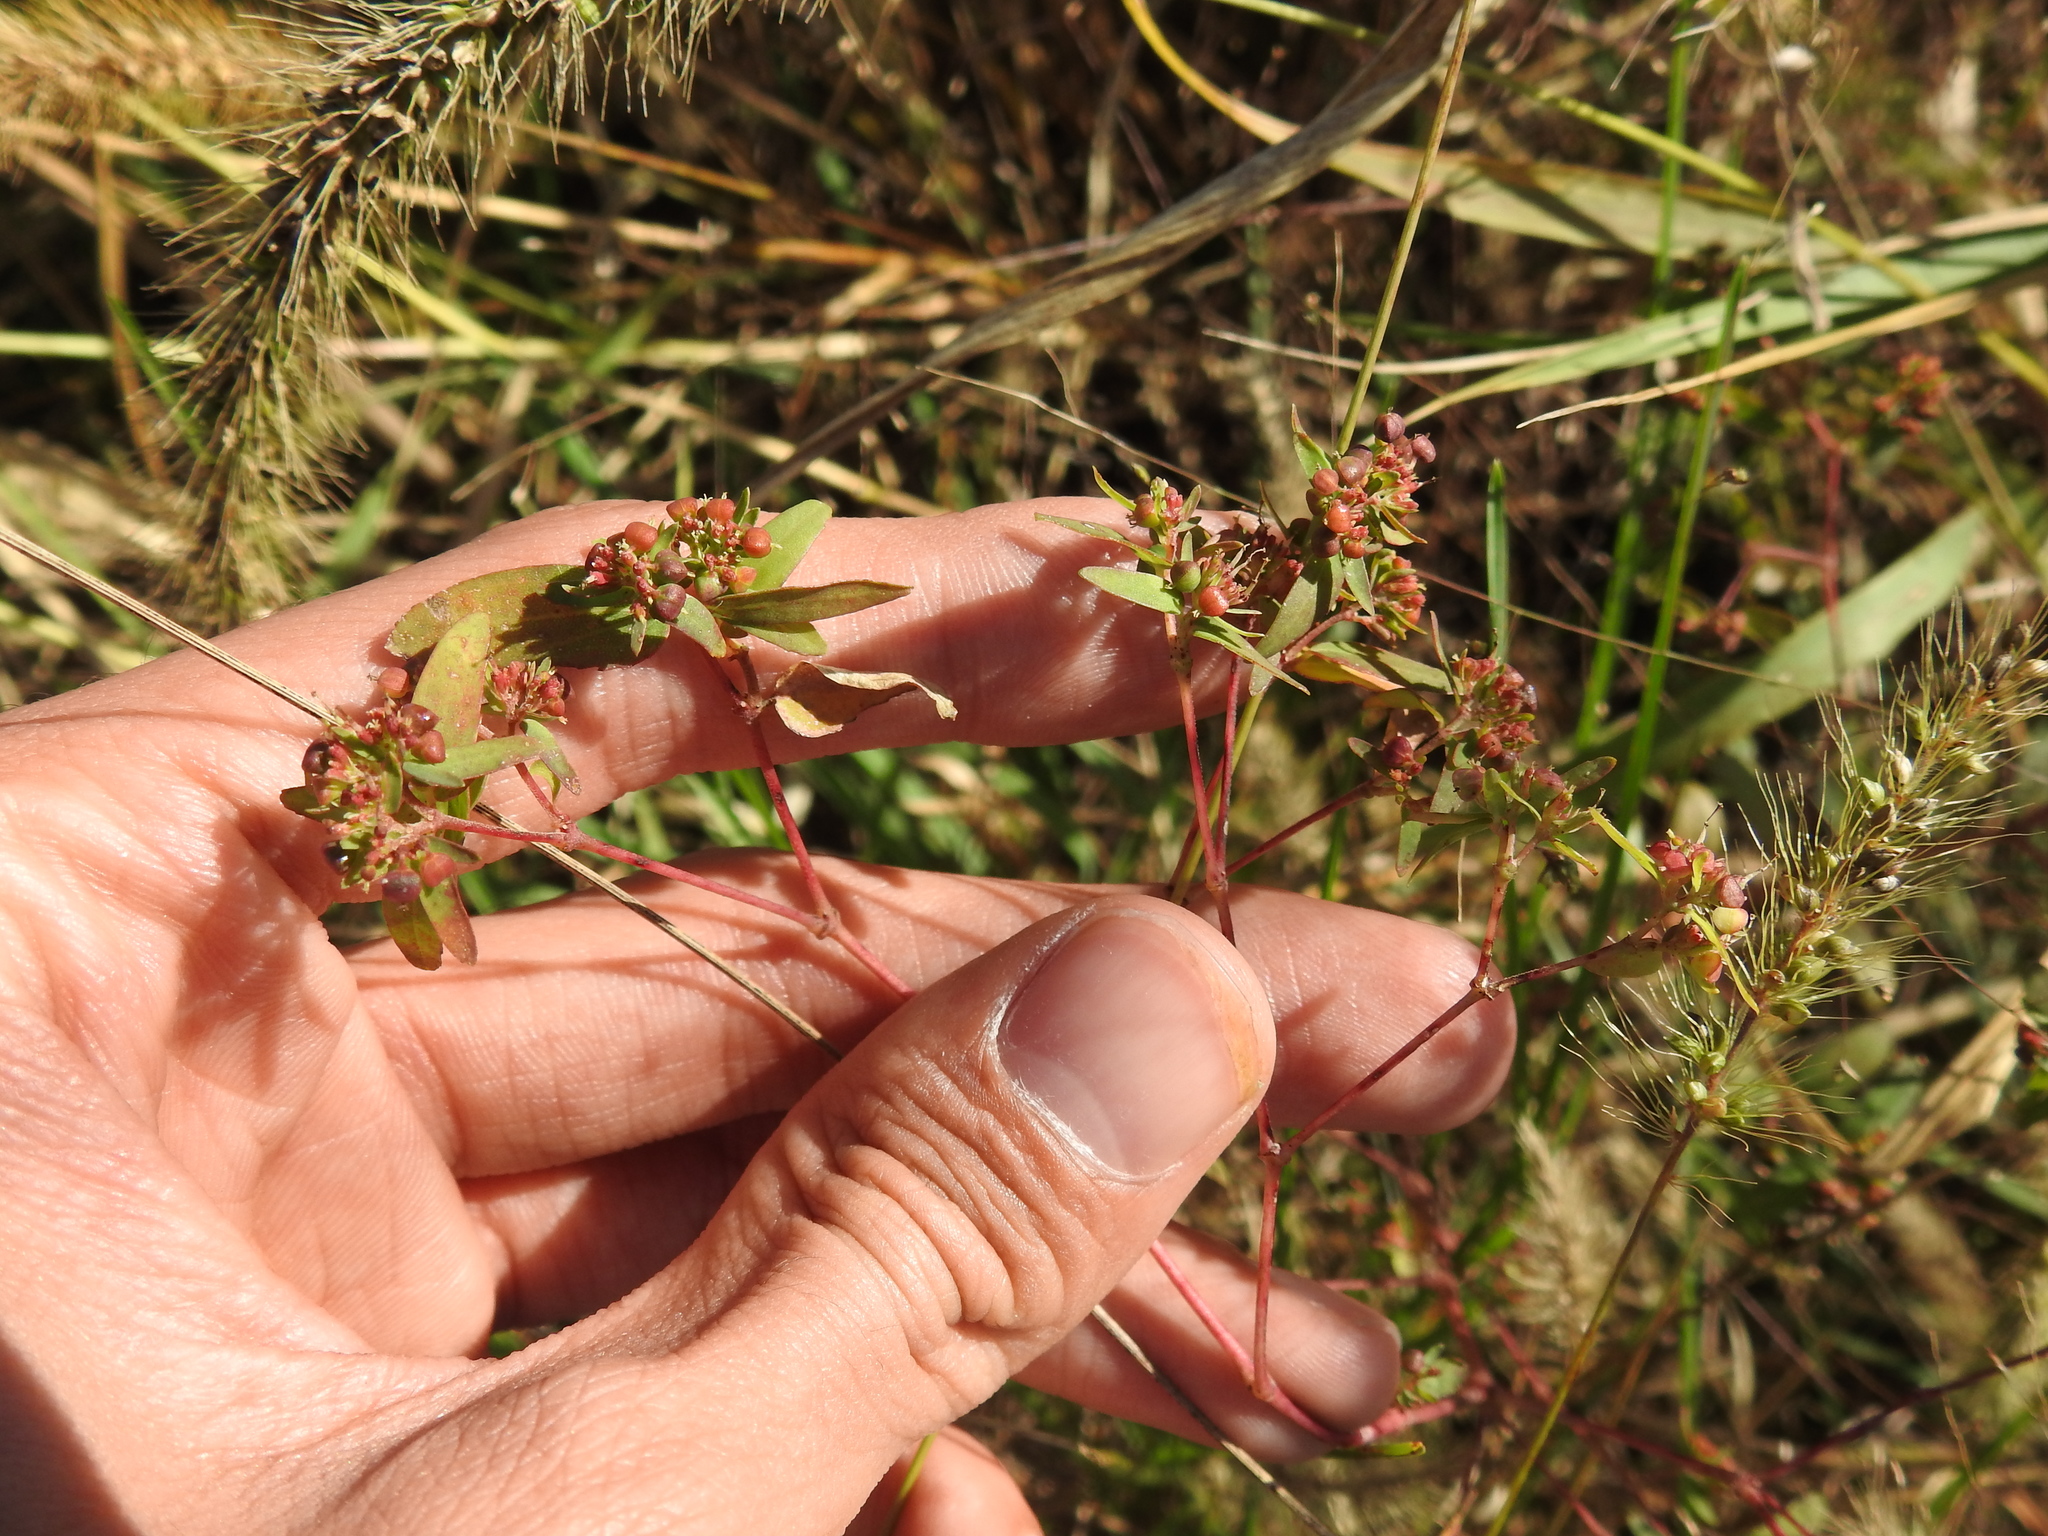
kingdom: Plantae
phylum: Tracheophyta
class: Magnoliopsida
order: Malpighiales
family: Euphorbiaceae
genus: Euphorbia
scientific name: Euphorbia nutans
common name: Eyebane
